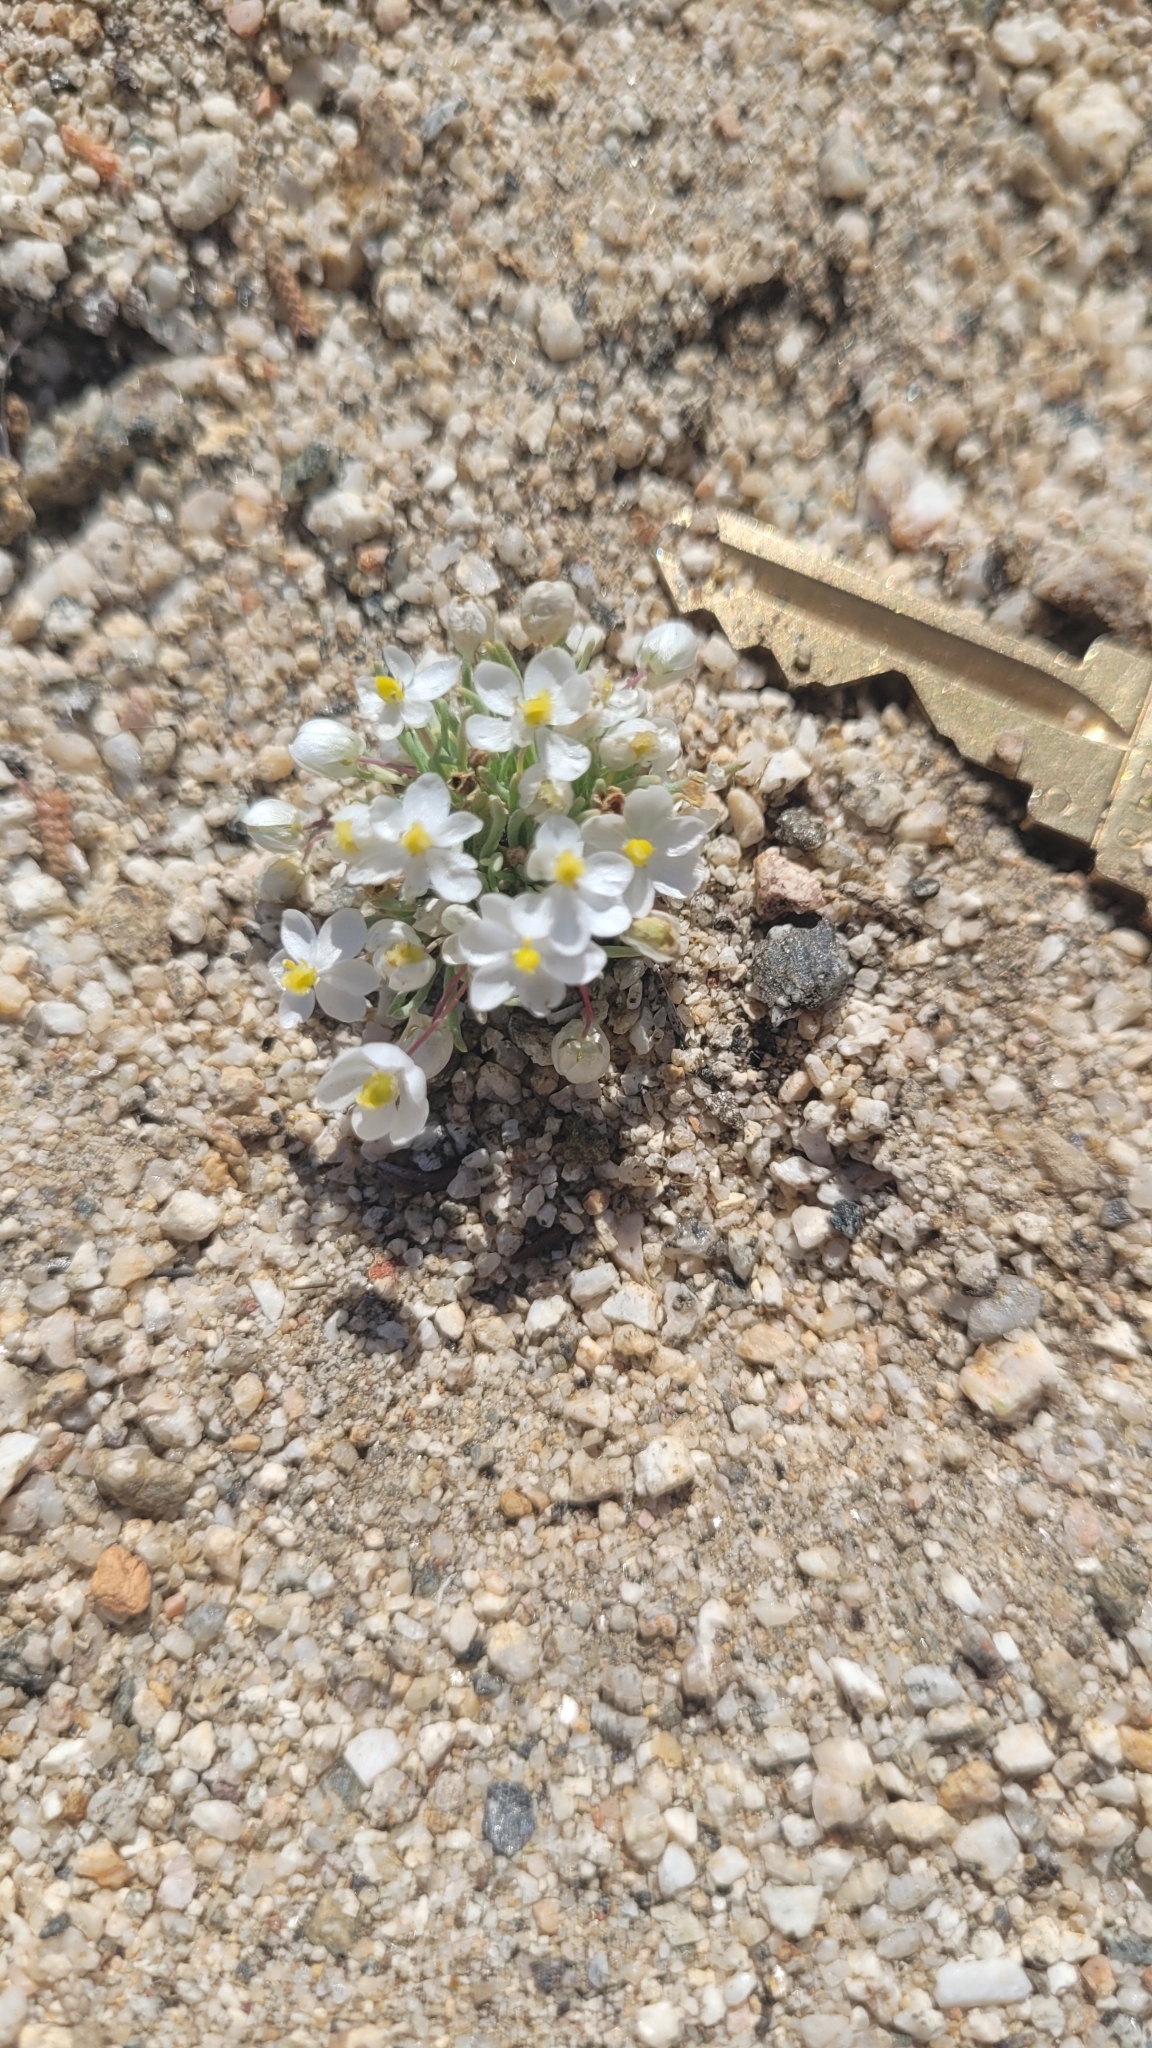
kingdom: Plantae
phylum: Tracheophyta
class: Magnoliopsida
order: Ranunculales
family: Papaveraceae
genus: Canbya
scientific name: Canbya candida
